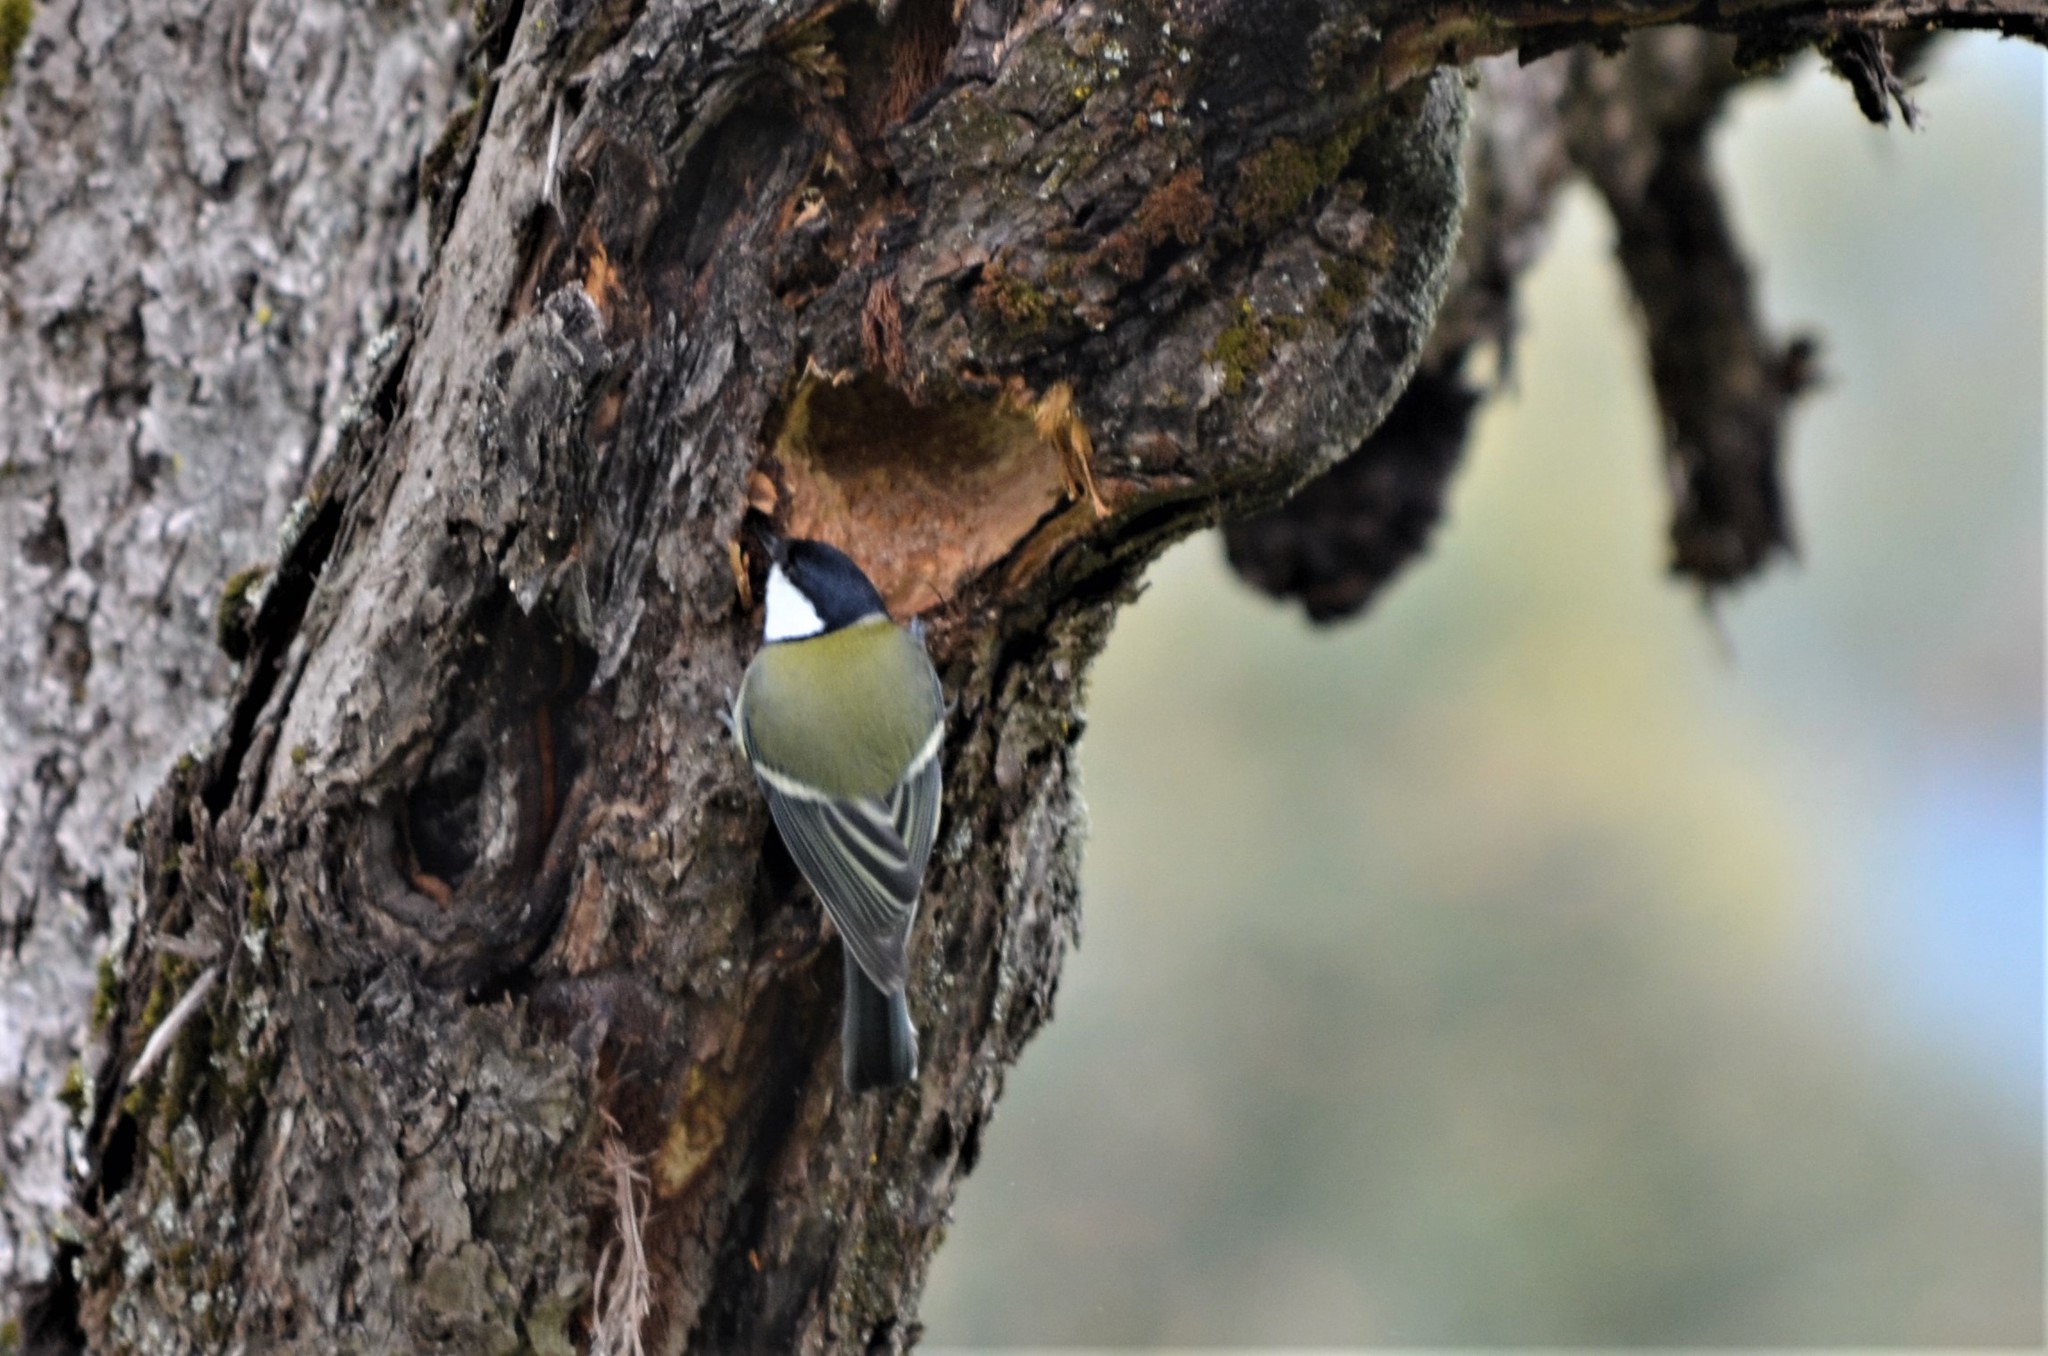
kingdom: Animalia
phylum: Chordata
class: Aves
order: Passeriformes
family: Paridae
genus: Parus
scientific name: Parus major
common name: Great tit
